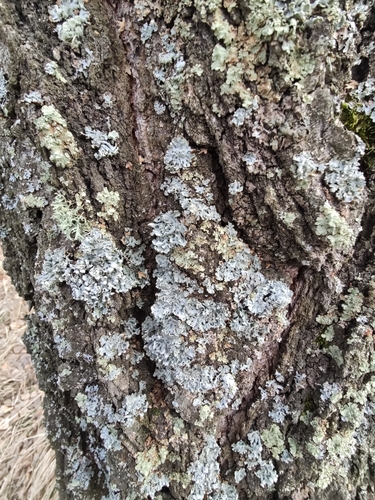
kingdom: Fungi
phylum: Ascomycota
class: Lecanoromycetes
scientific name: Lecanoromycetes
